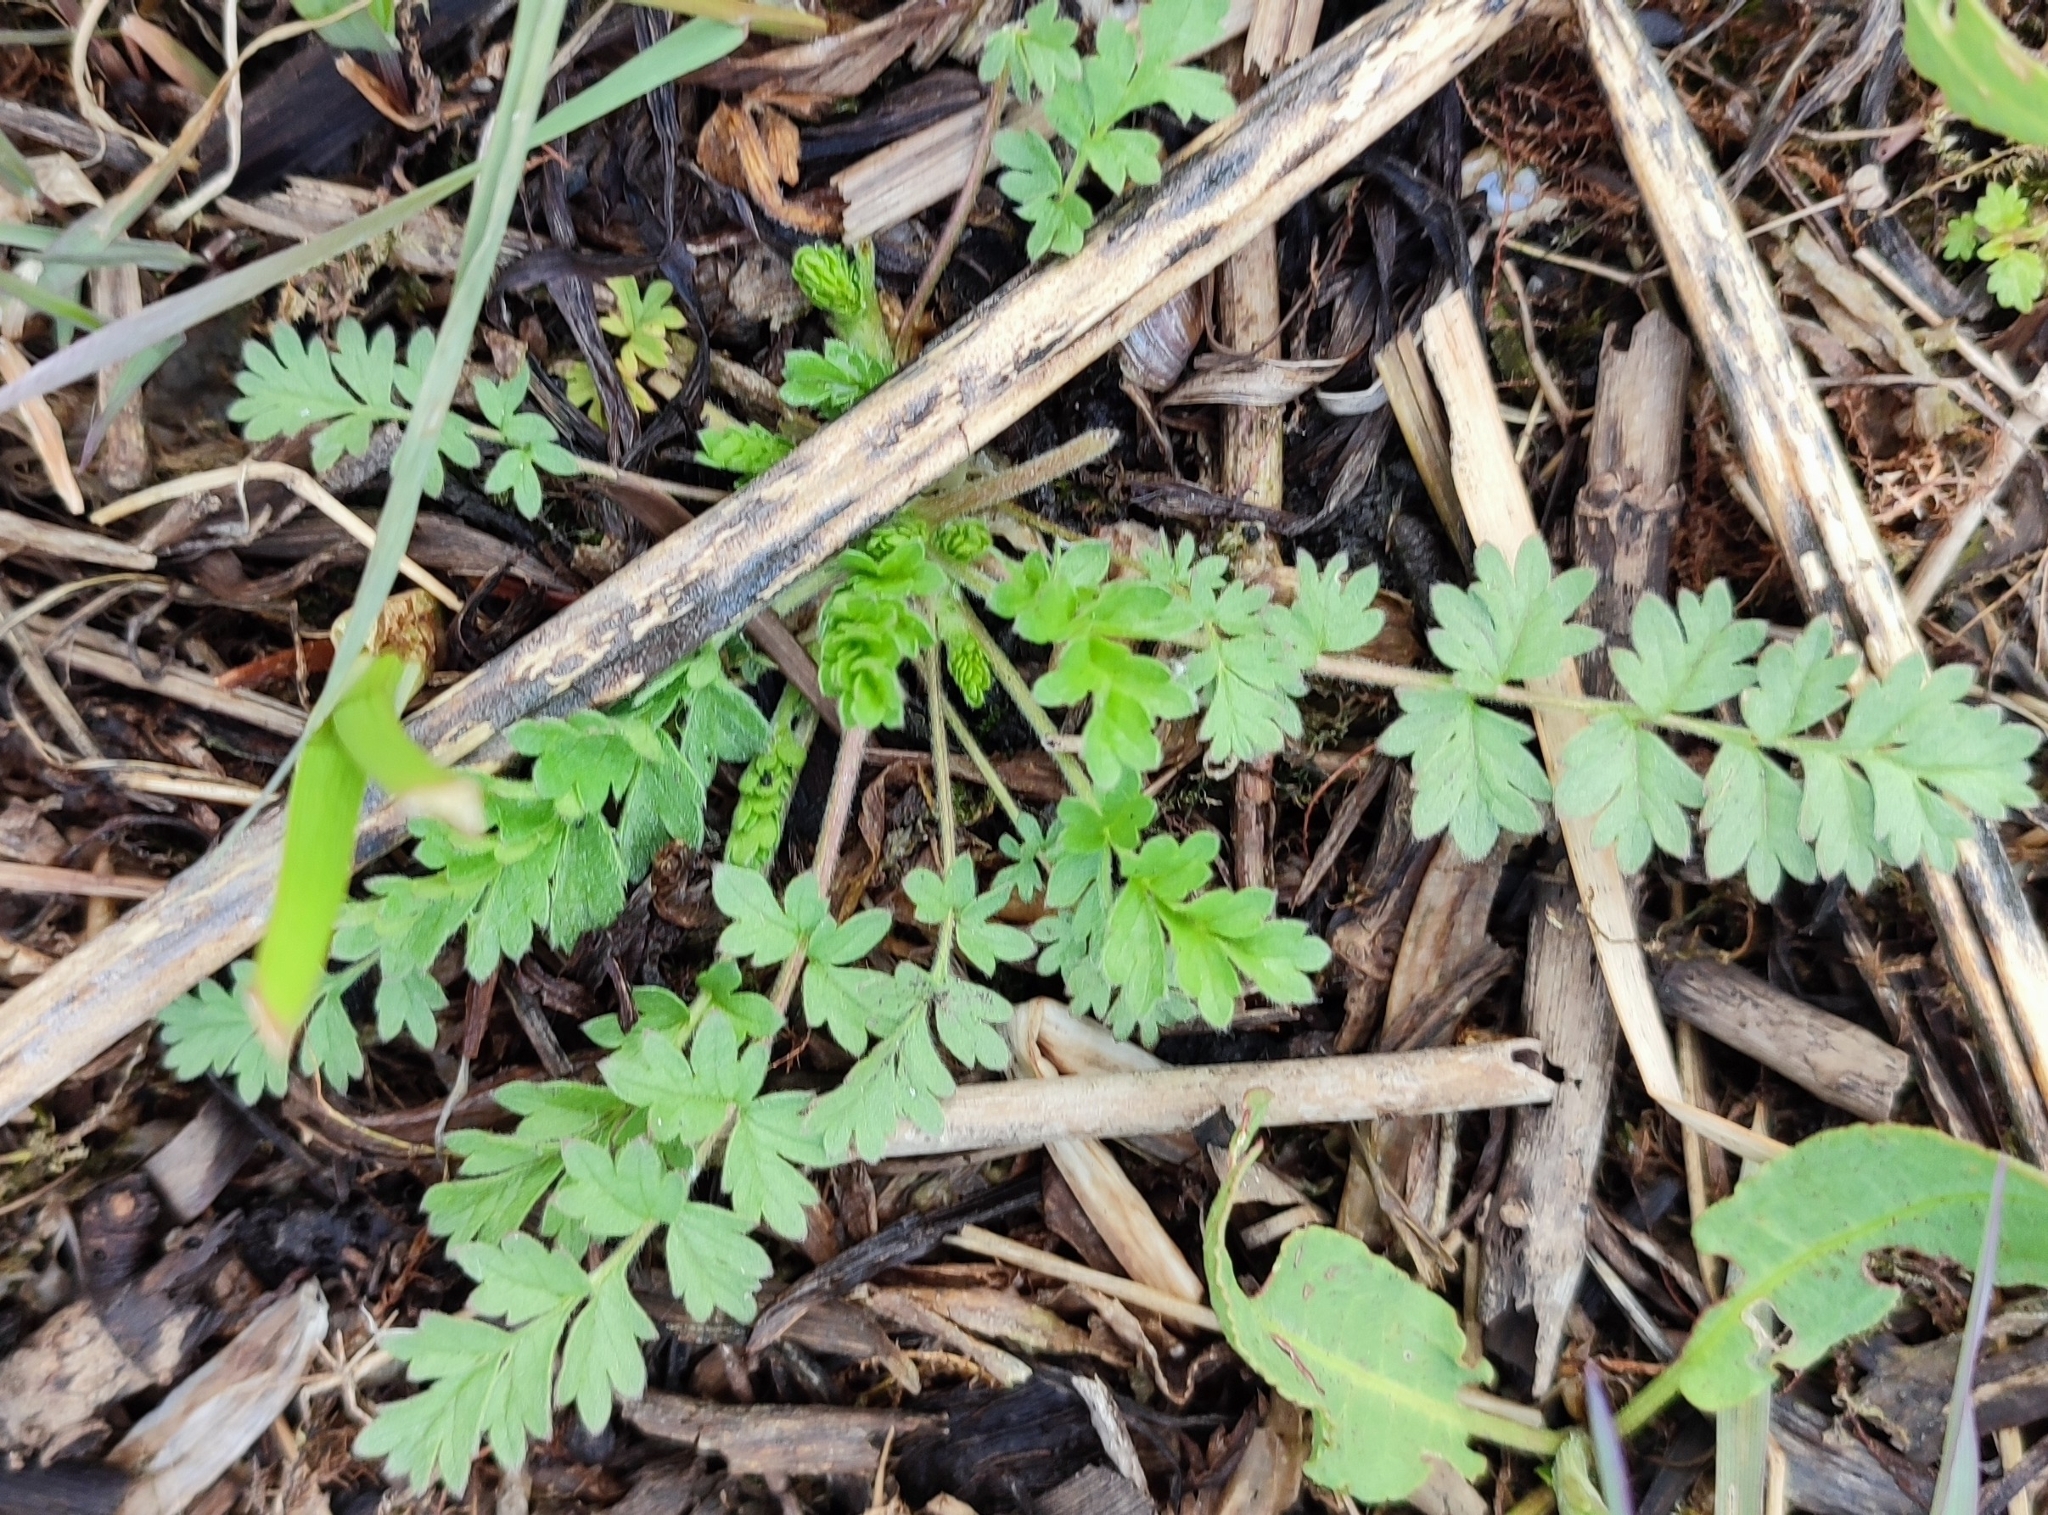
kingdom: Plantae
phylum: Tracheophyta
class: Magnoliopsida
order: Rosales
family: Rosaceae
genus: Potentilla
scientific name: Potentilla supina
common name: Prostrate cinquefoil
